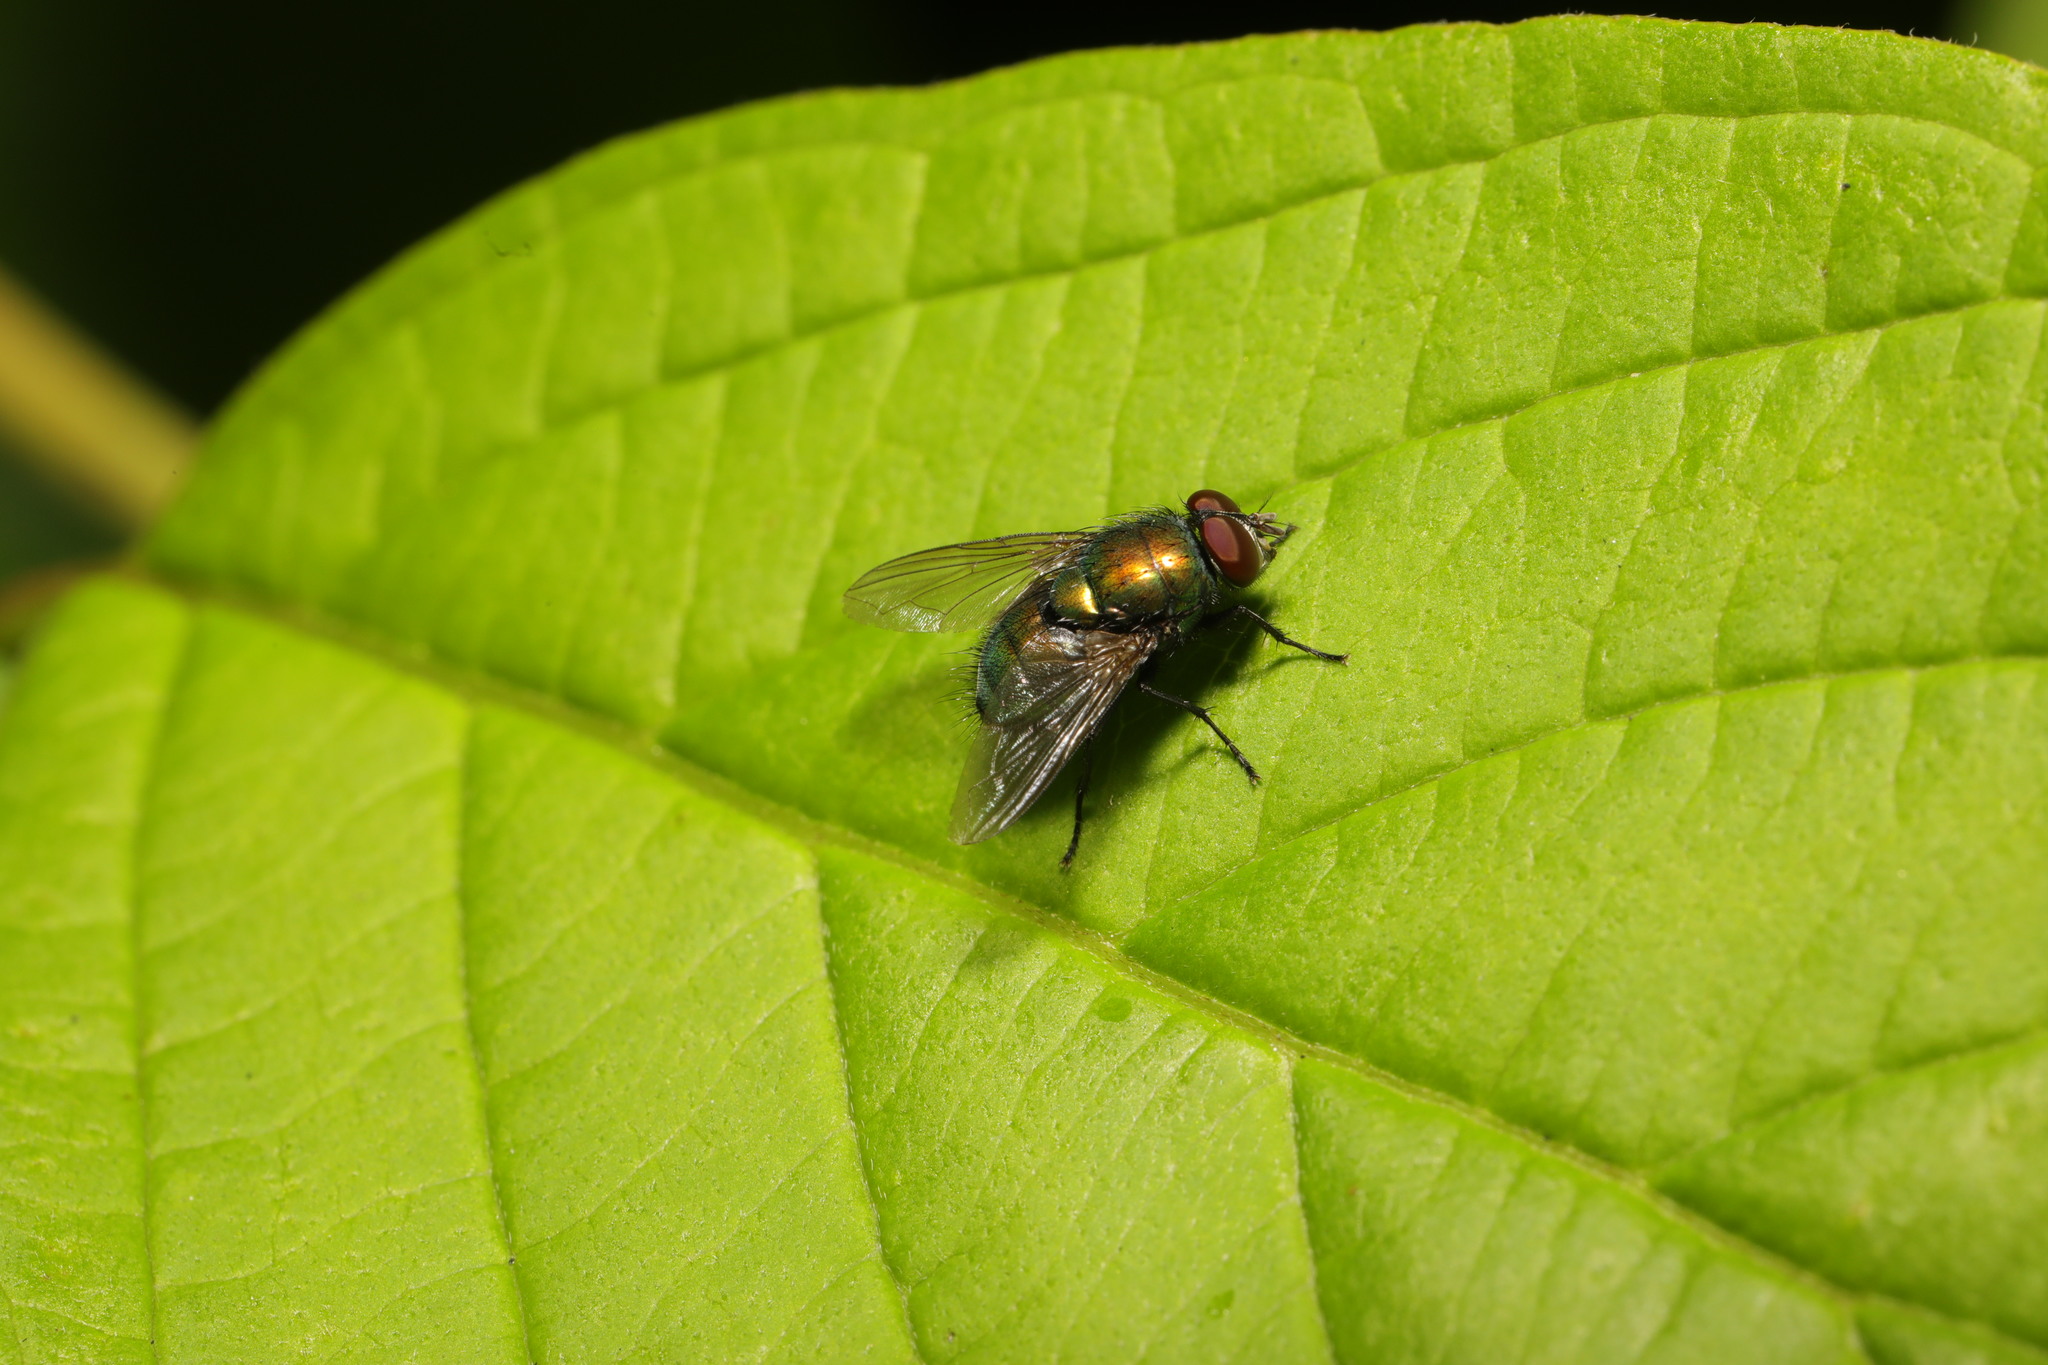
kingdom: Animalia
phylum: Arthropoda
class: Insecta
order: Diptera
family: Calliphoridae
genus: Lucilia
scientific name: Lucilia
